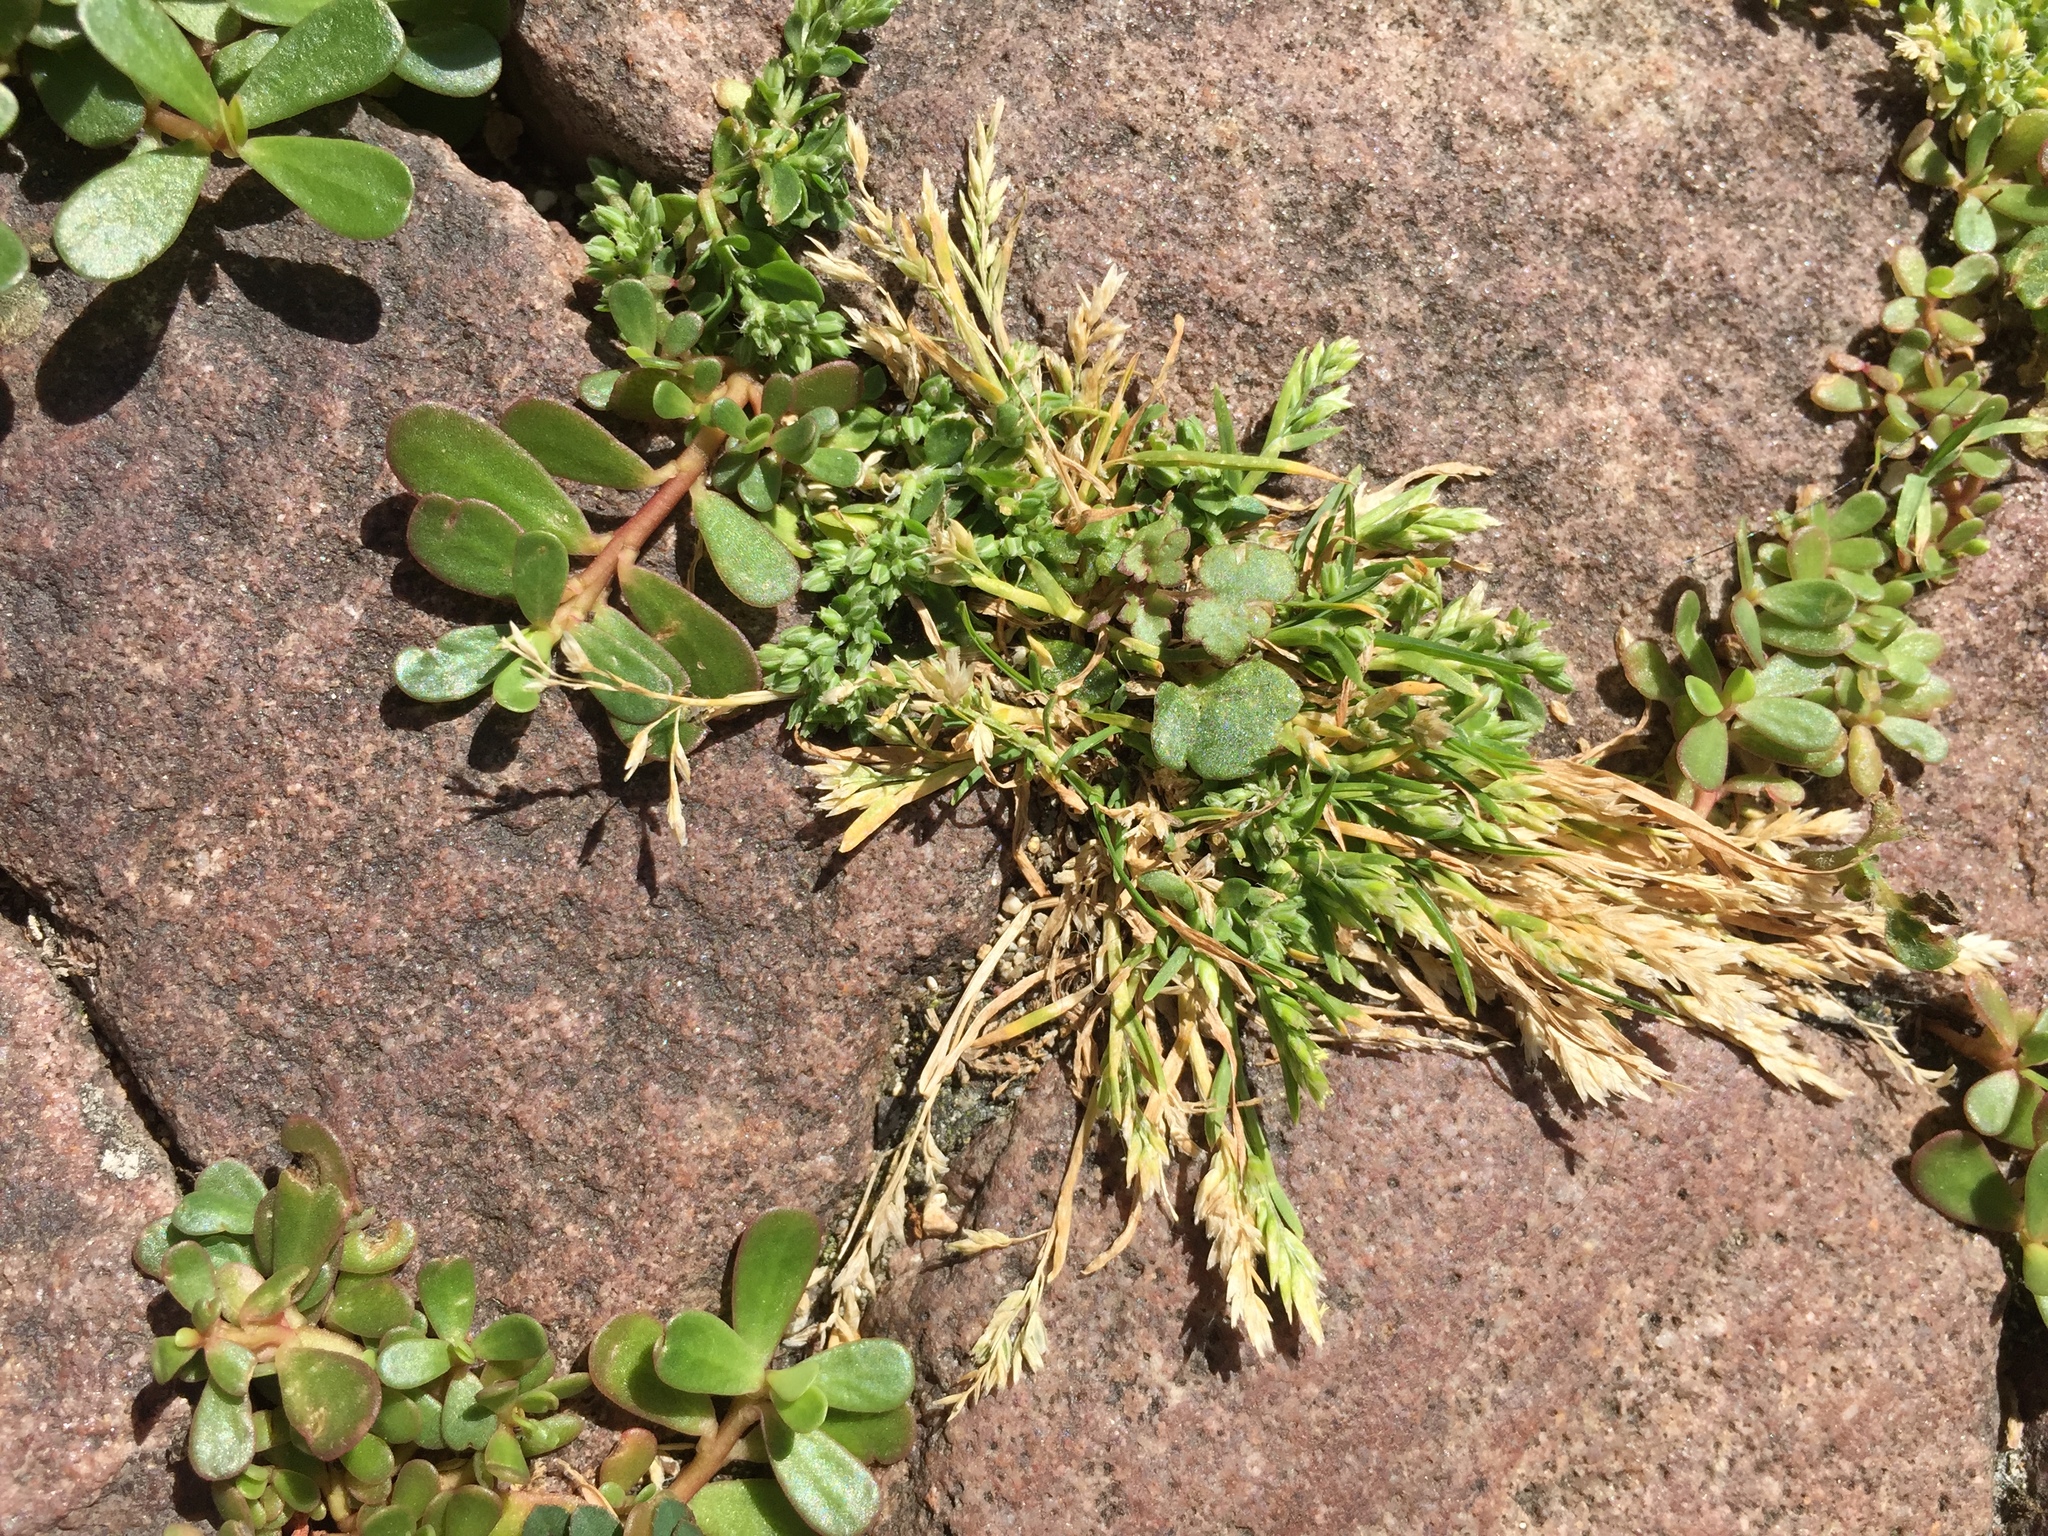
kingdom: Plantae
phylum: Tracheophyta
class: Liliopsida
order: Poales
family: Poaceae
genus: Poa
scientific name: Poa annua
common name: Annual bluegrass
